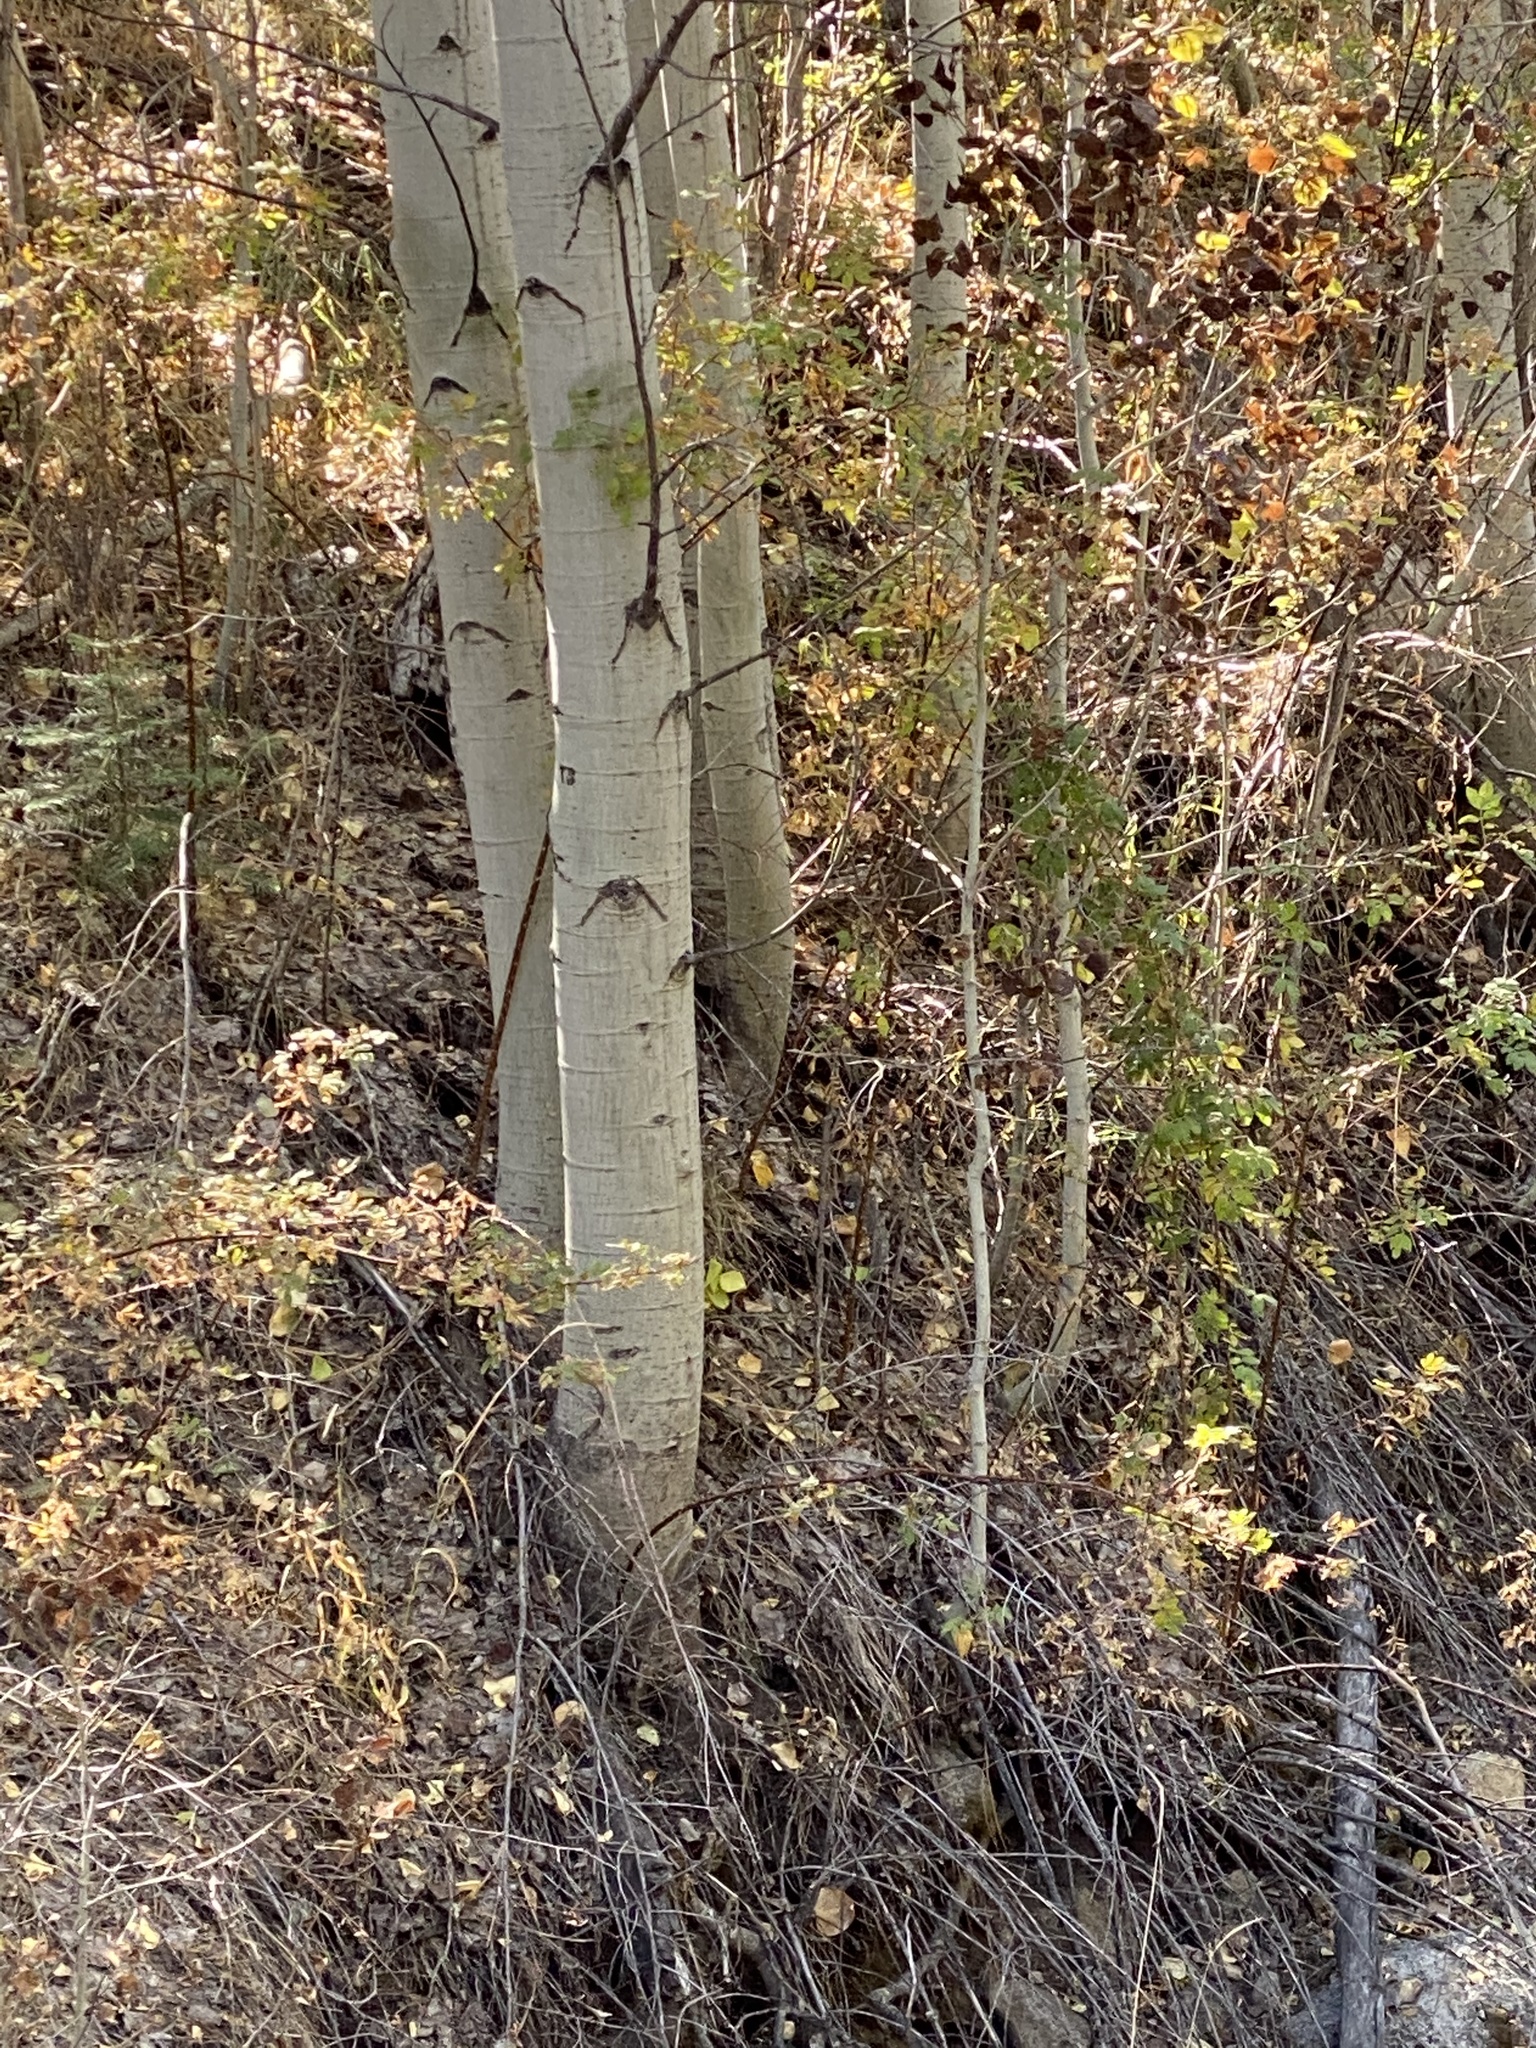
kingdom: Plantae
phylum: Tracheophyta
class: Magnoliopsida
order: Malpighiales
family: Salicaceae
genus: Populus
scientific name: Populus tremuloides
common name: Quaking aspen
